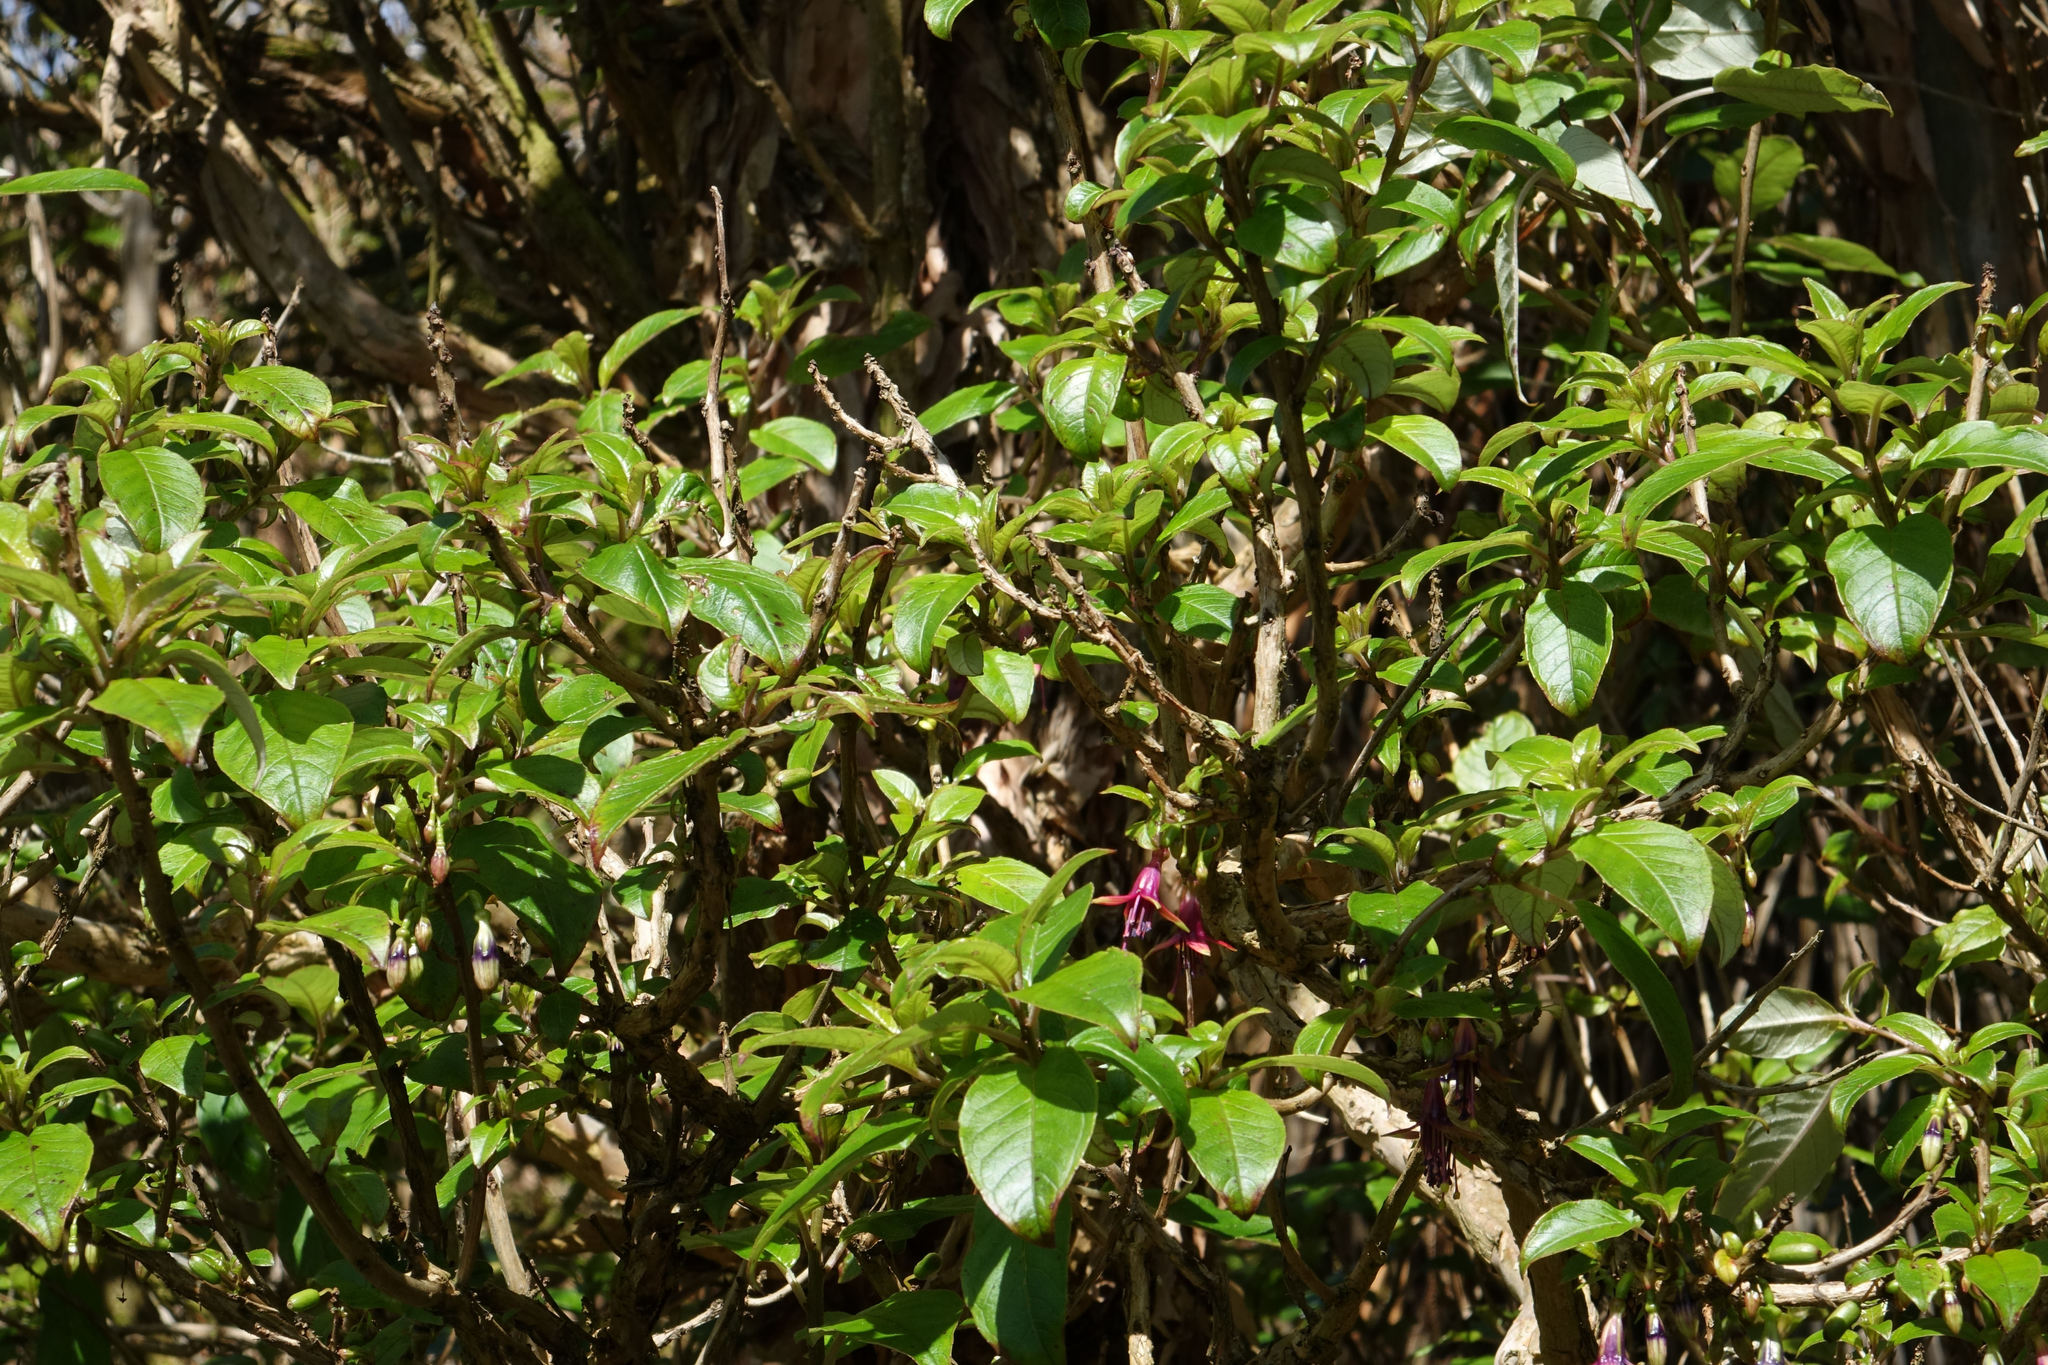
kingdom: Plantae
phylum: Tracheophyta
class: Magnoliopsida
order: Myrtales
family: Onagraceae
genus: Fuchsia
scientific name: Fuchsia excorticata
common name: Tree fuchsia
